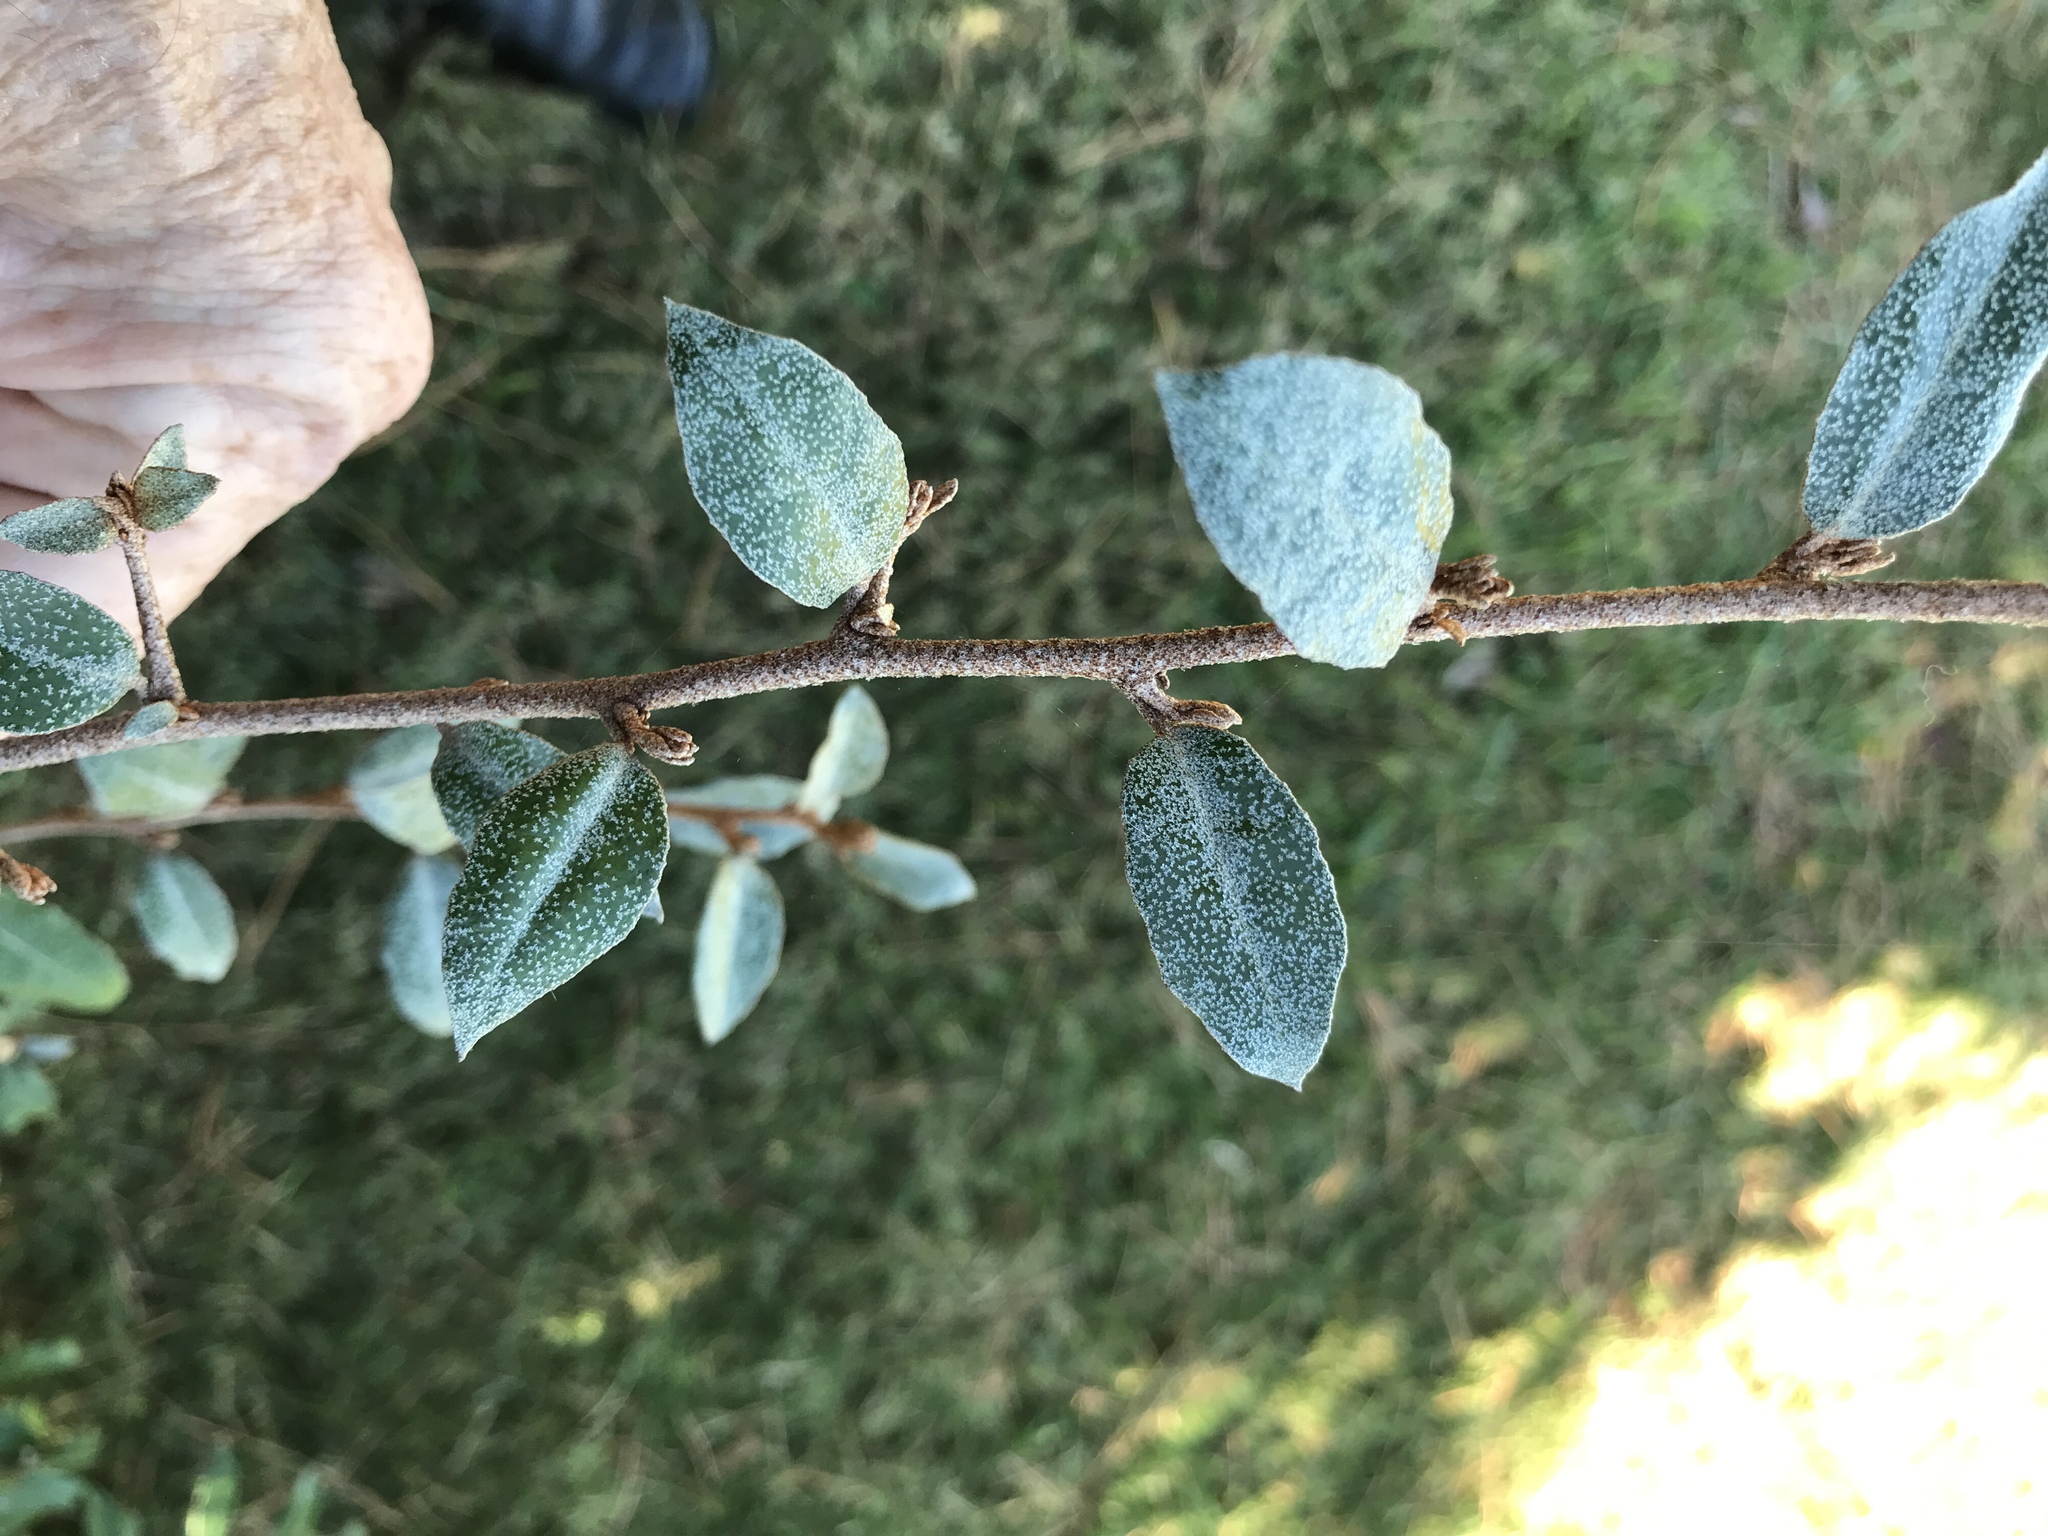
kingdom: Plantae
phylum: Tracheophyta
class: Magnoliopsida
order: Rosales
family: Elaeagnaceae
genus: Elaeagnus
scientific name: Elaeagnus pungens
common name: Spiny oleaster
